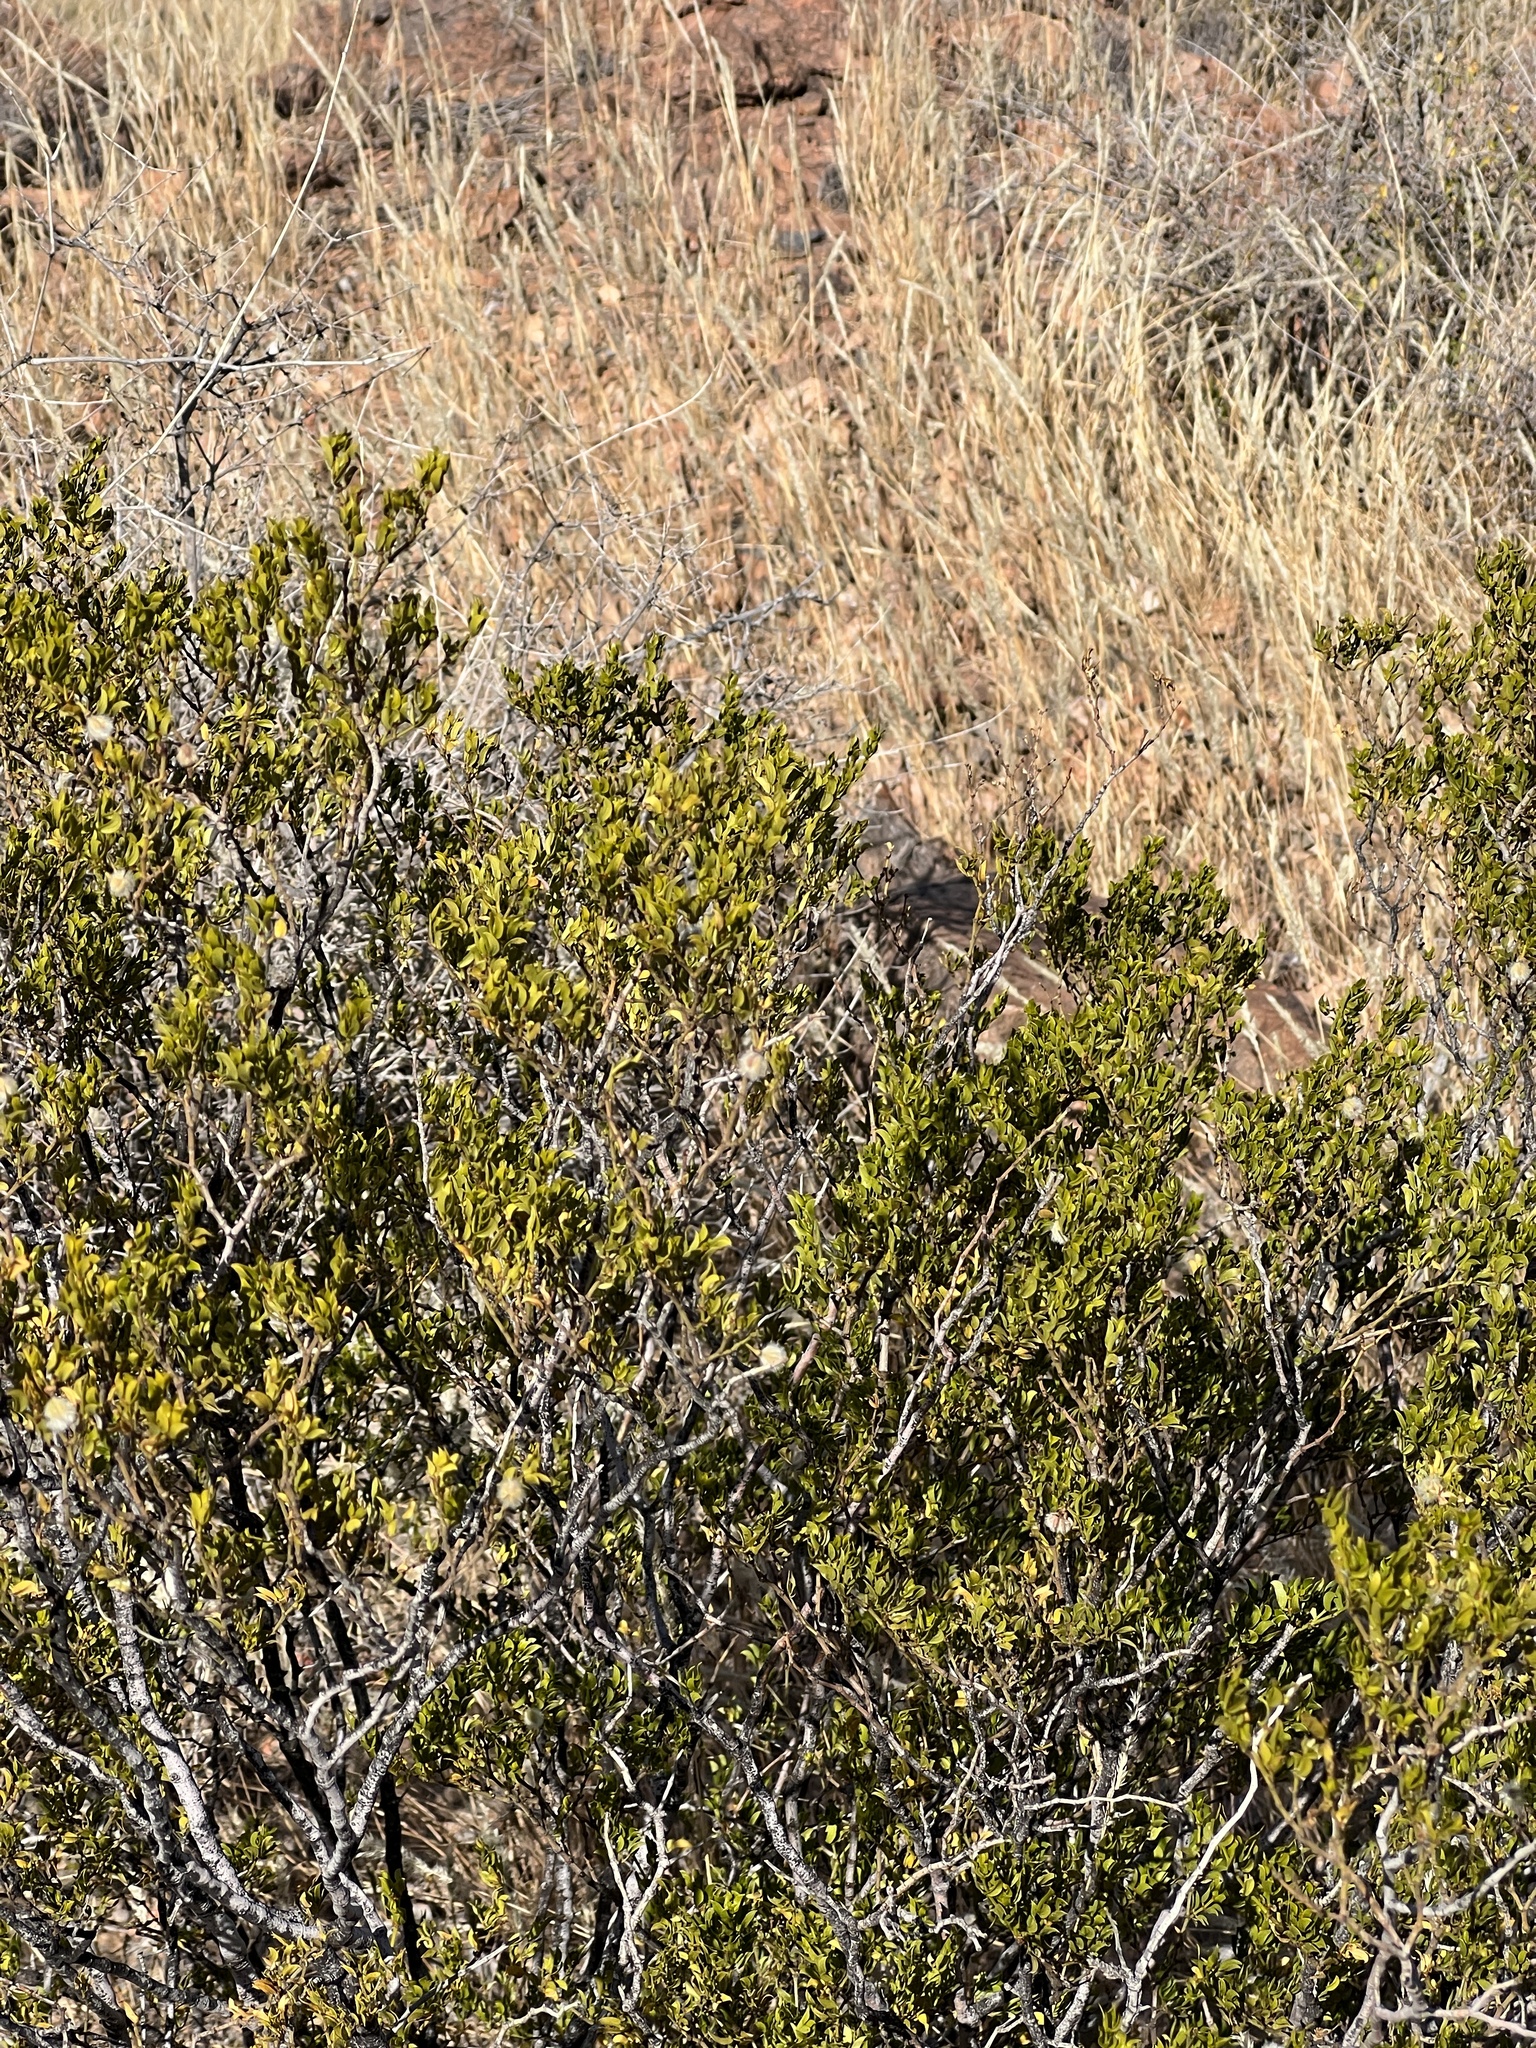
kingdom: Plantae
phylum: Tracheophyta
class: Magnoliopsida
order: Zygophyllales
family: Zygophyllaceae
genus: Larrea
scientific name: Larrea tridentata
